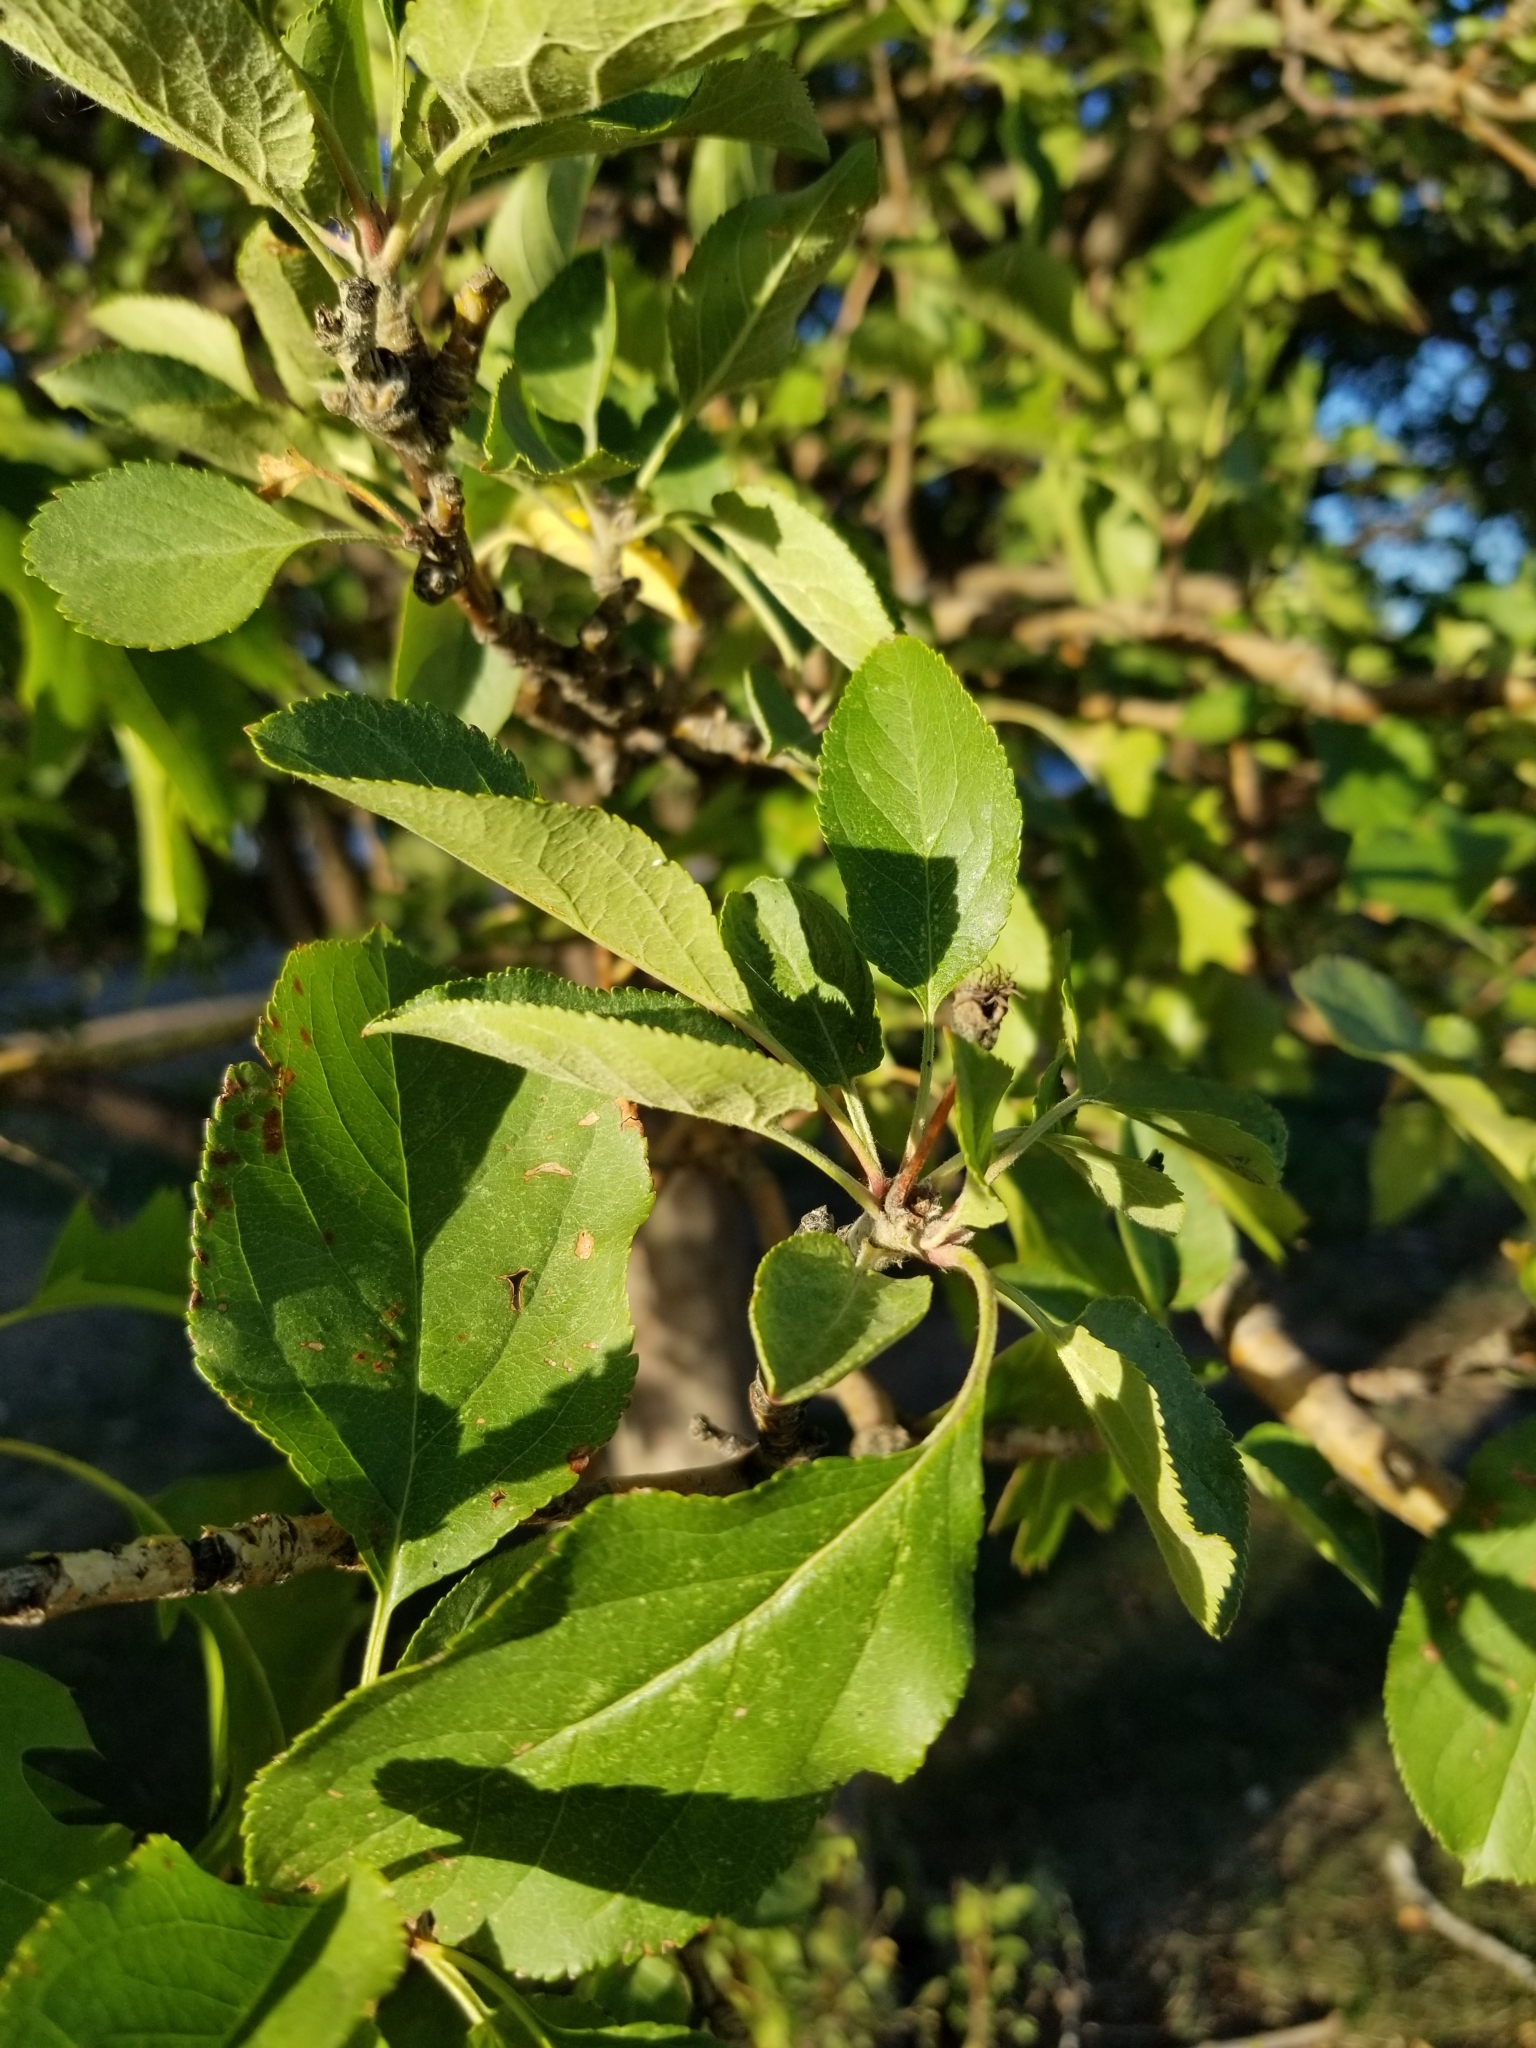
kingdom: Plantae
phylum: Tracheophyta
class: Magnoliopsida
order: Rosales
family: Rosaceae
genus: Malus
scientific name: Malus domestica
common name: Apple
